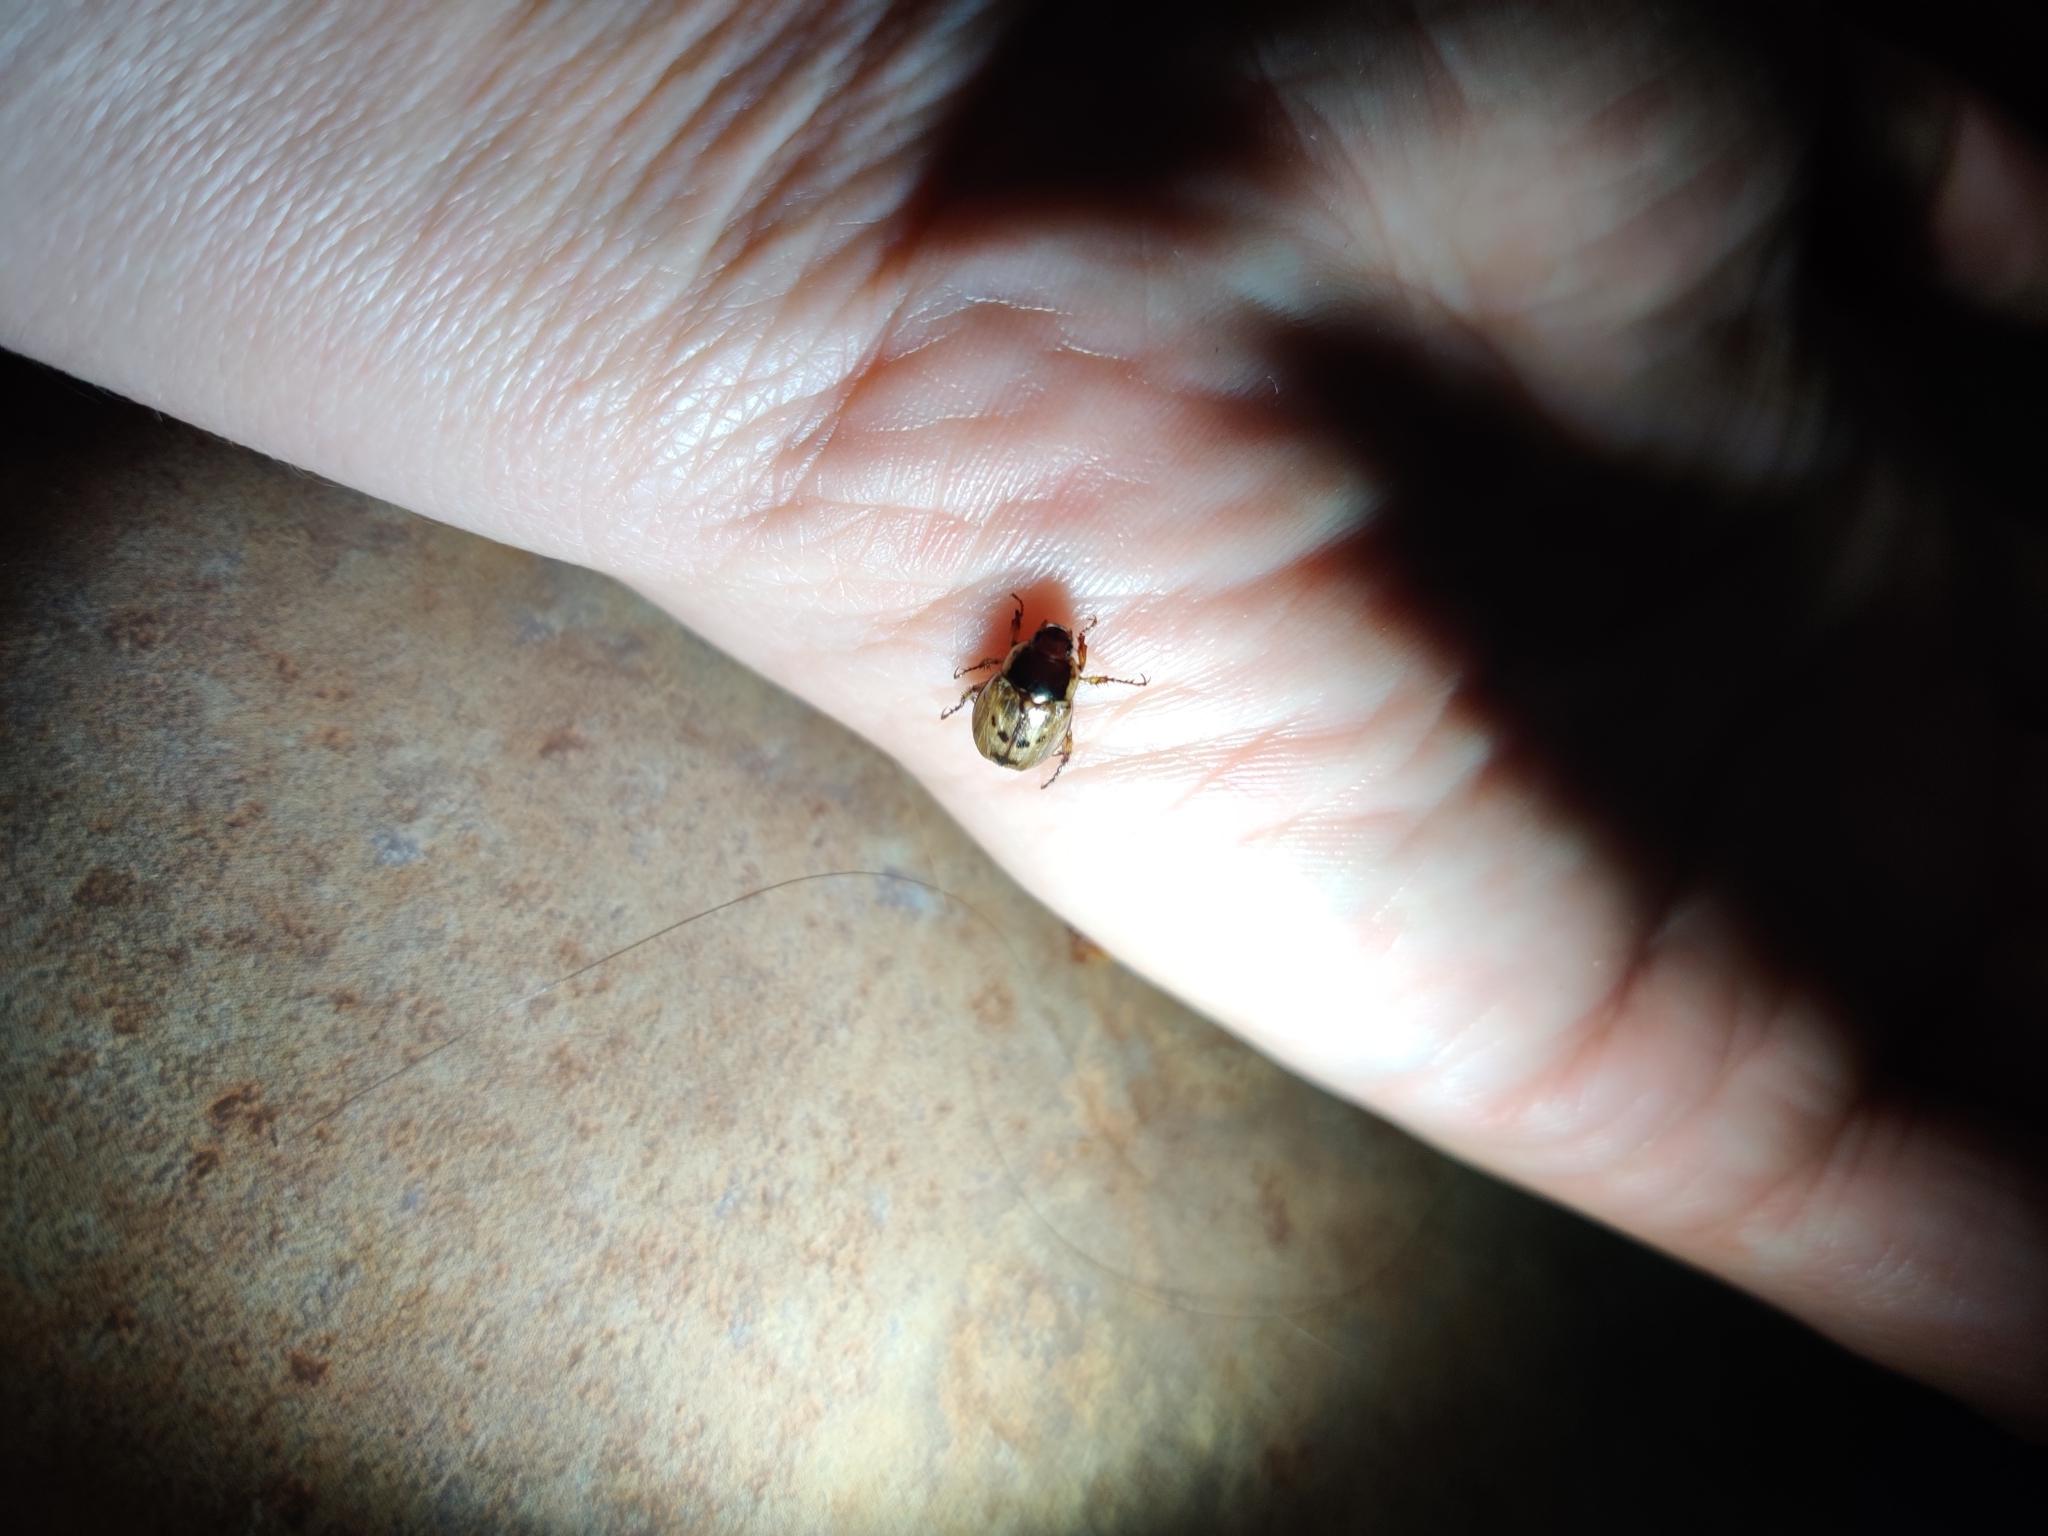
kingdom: Animalia
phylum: Arthropoda
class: Insecta
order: Coleoptera
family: Scarabaeidae
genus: Paranomala
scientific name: Paranomala undulata
